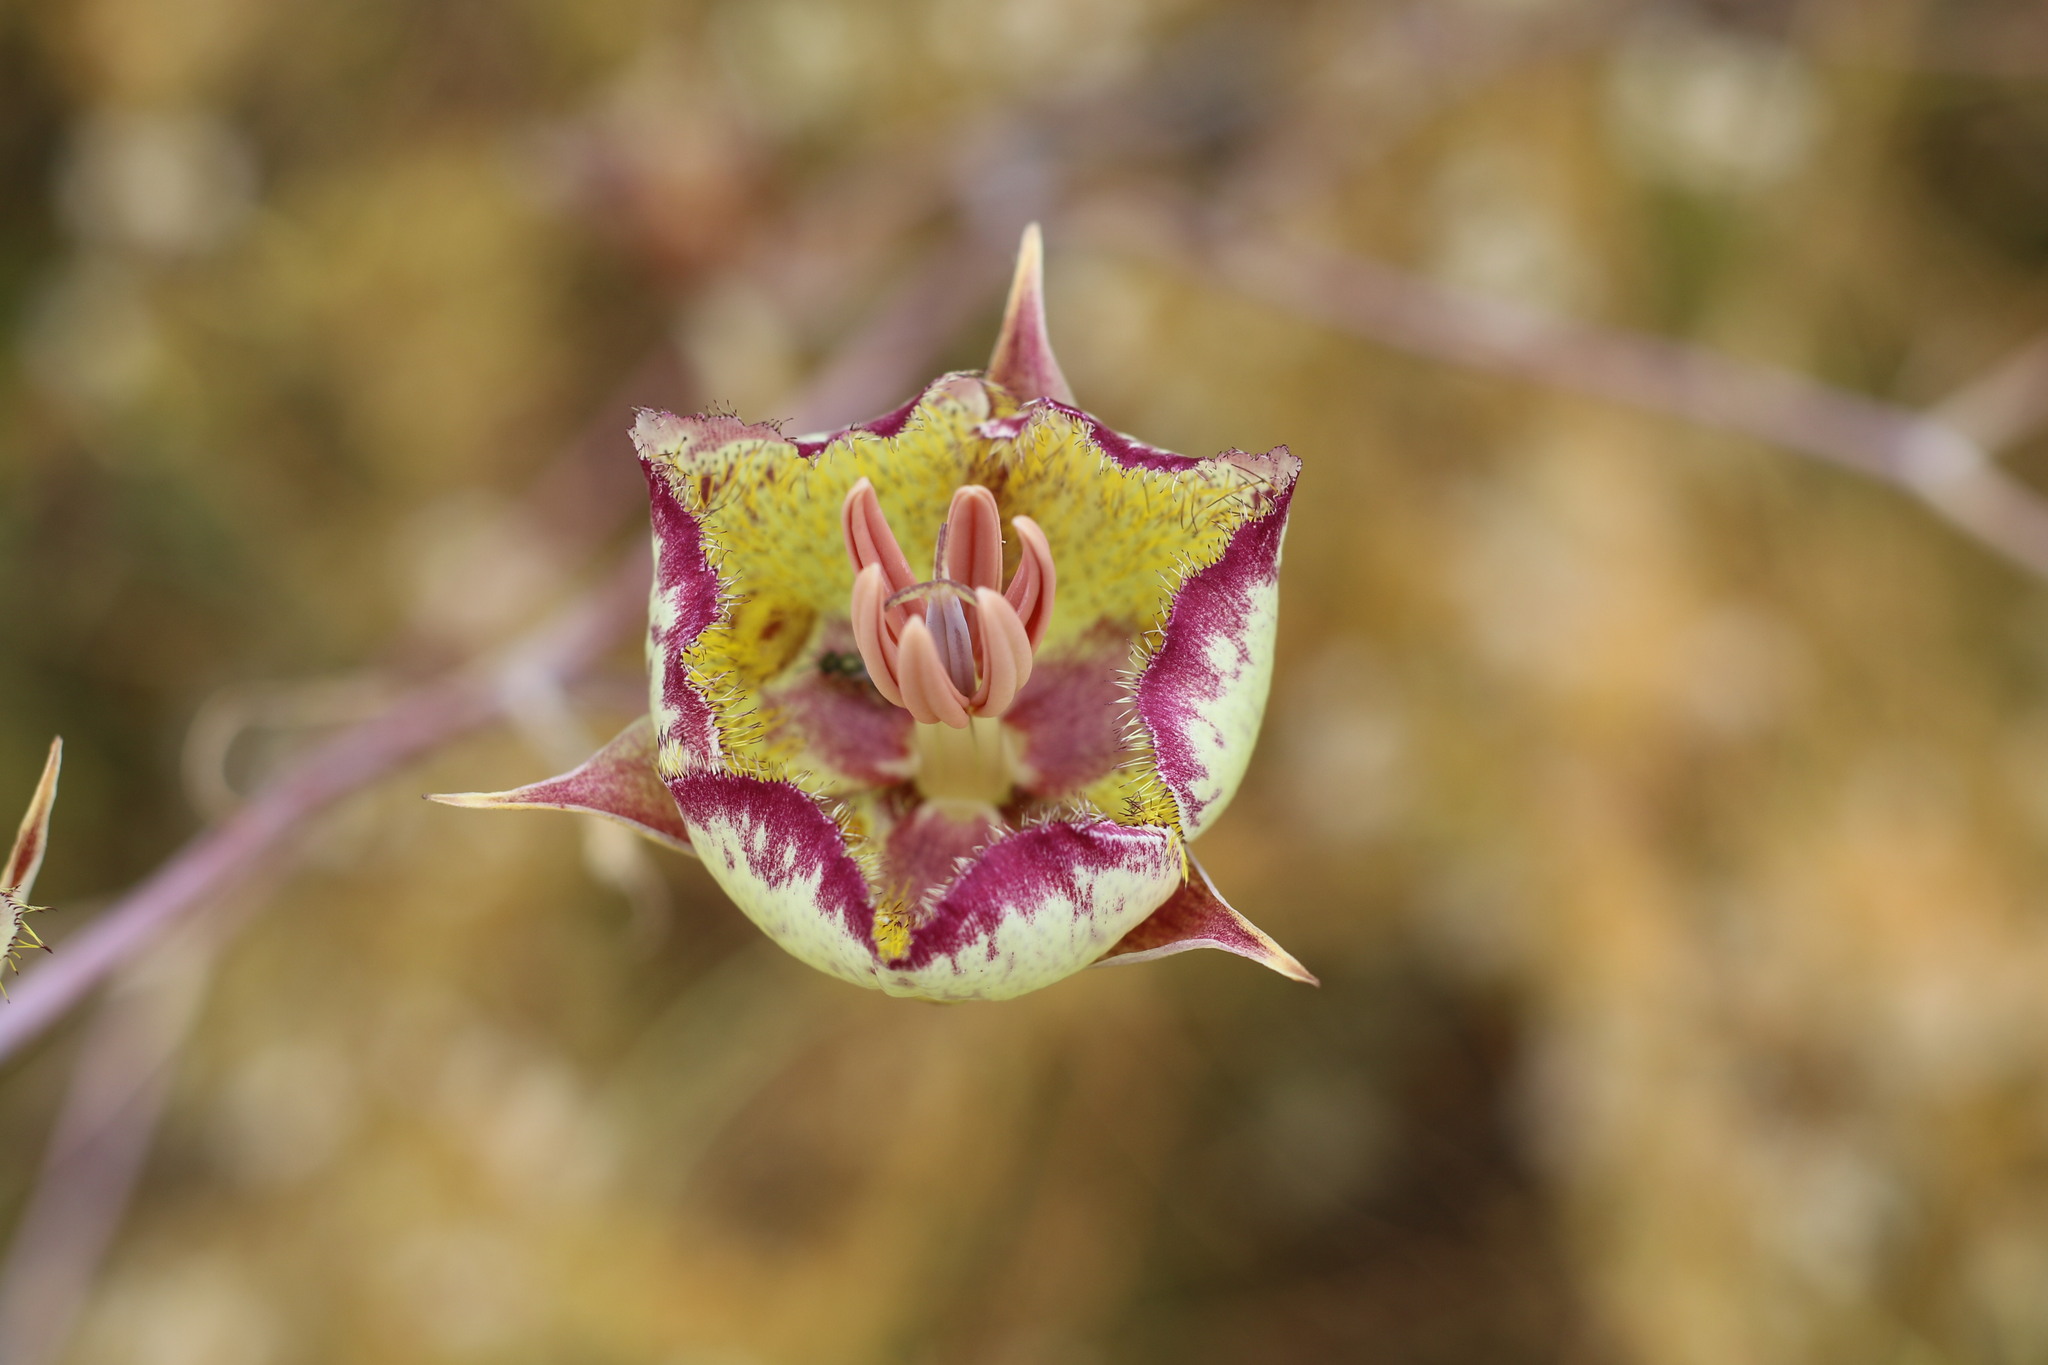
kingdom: Plantae
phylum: Tracheophyta
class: Liliopsida
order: Liliales
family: Liliaceae
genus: Calochortus
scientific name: Calochortus weedii
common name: Weed's mariposa-lily
